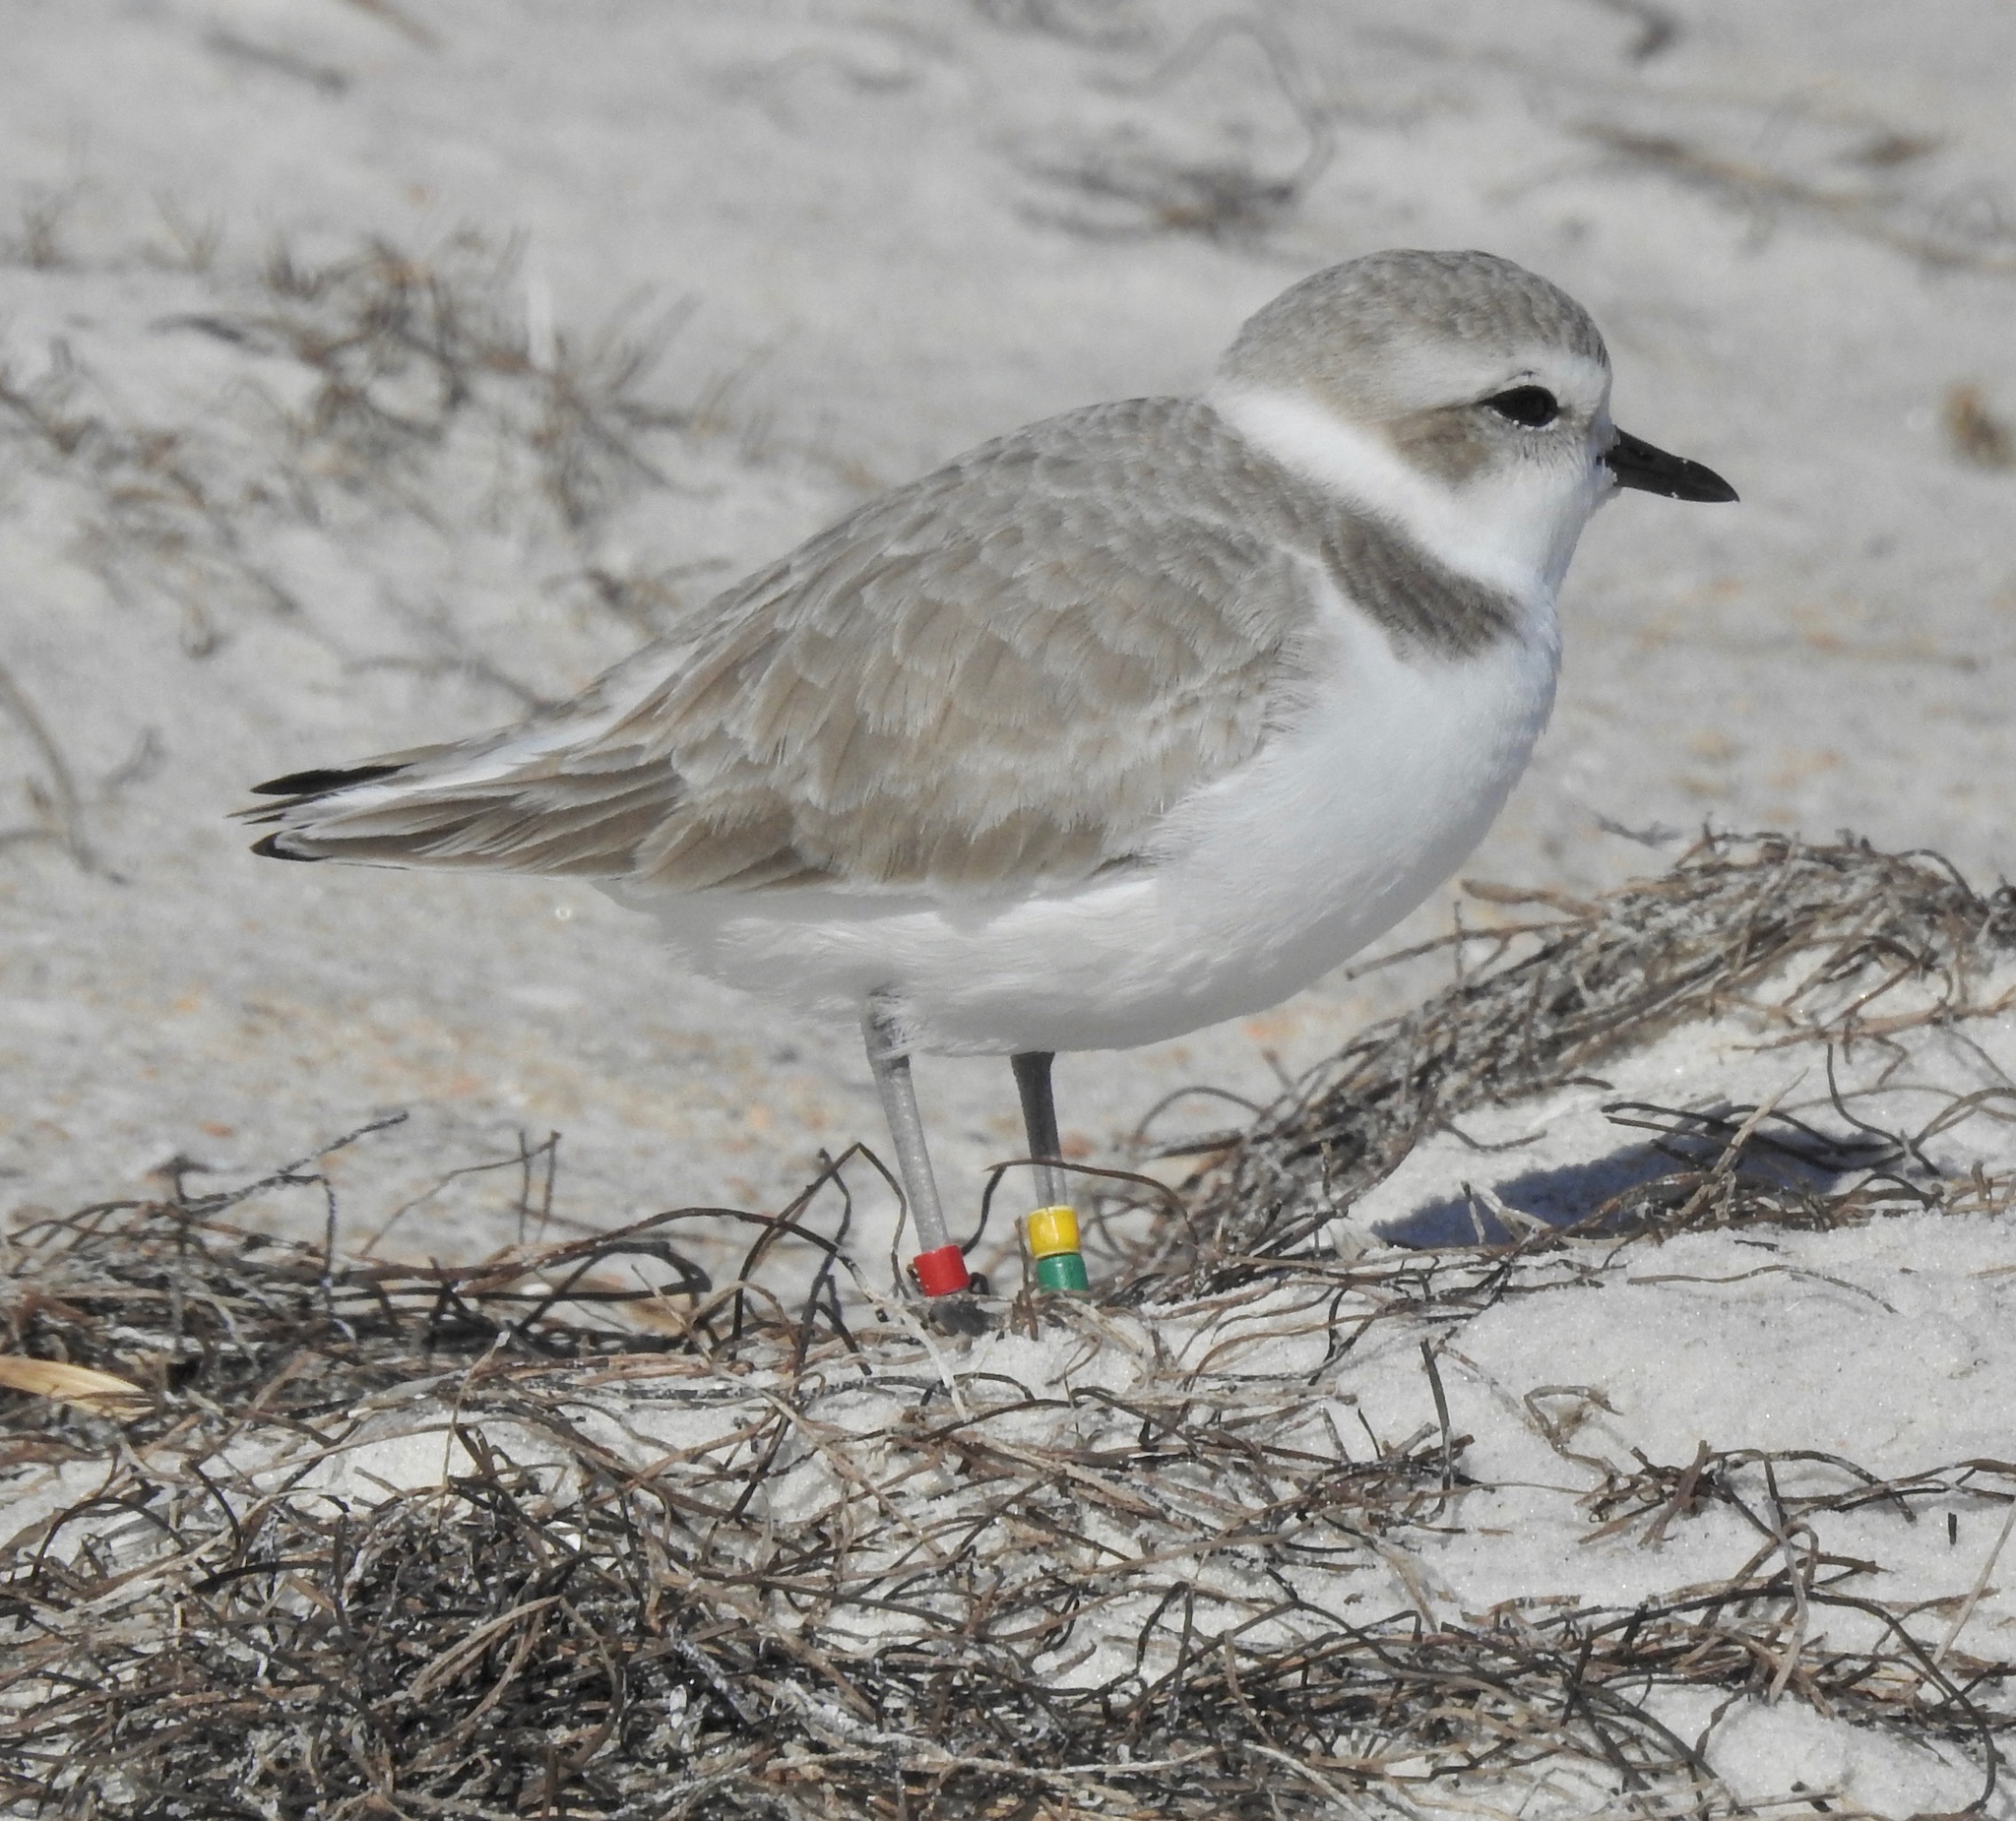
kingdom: Animalia
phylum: Chordata
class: Aves
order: Charadriiformes
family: Charadriidae
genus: Anarhynchus
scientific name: Anarhynchus
